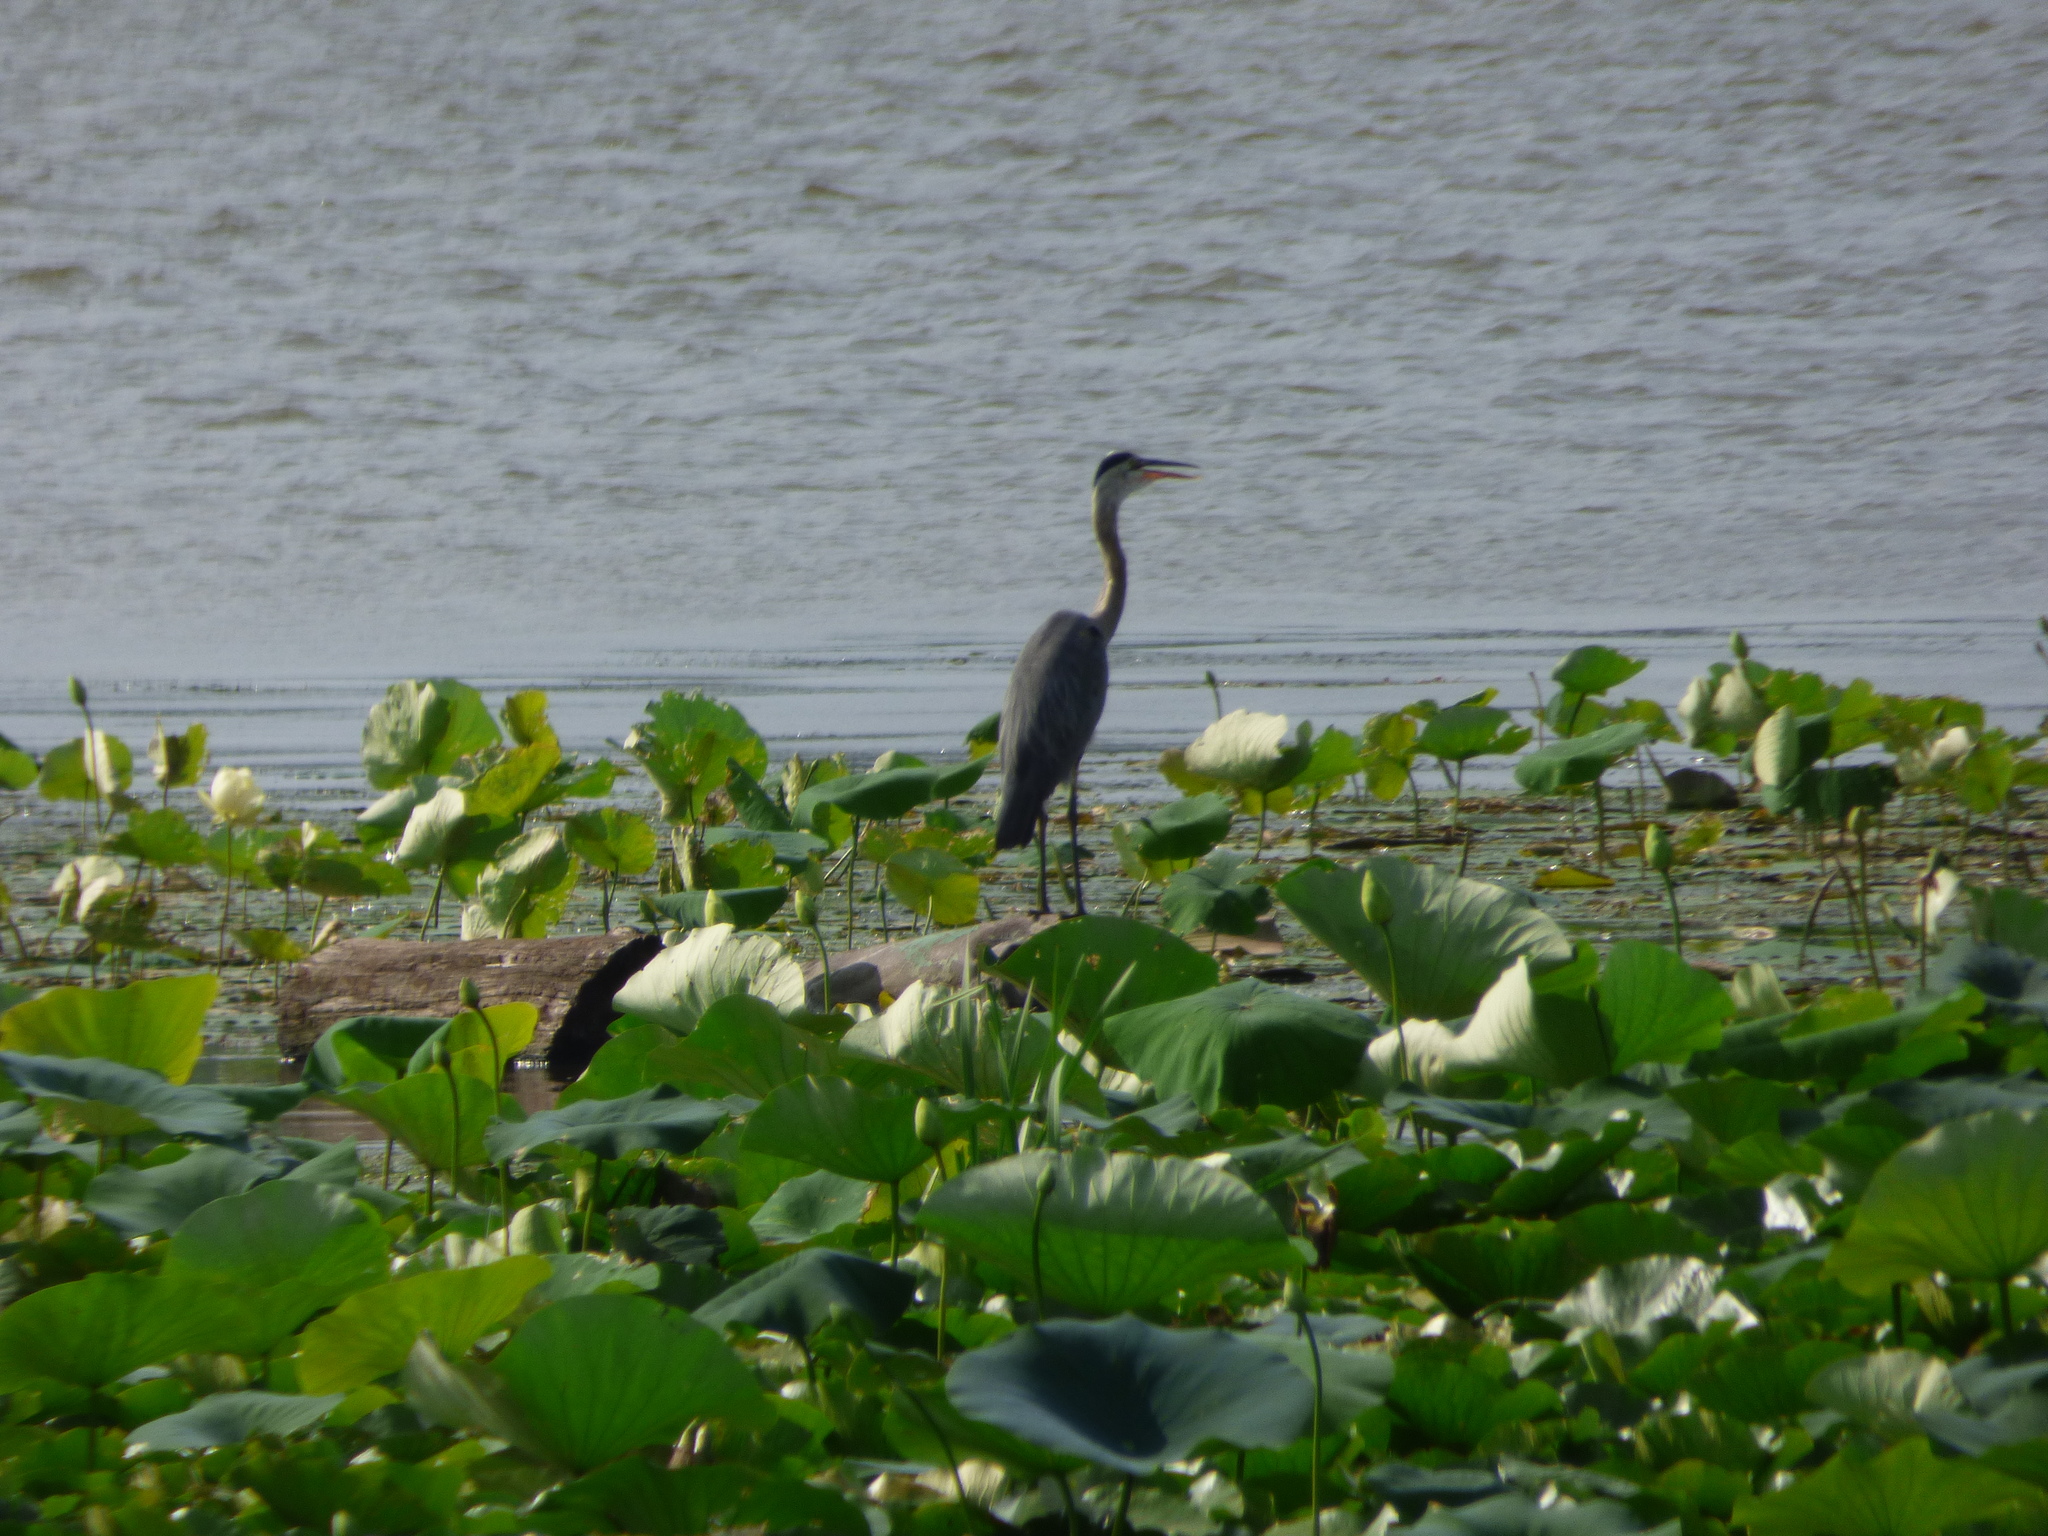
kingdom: Animalia
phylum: Chordata
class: Aves
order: Pelecaniformes
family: Ardeidae
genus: Ardea
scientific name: Ardea herodias
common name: Great blue heron
